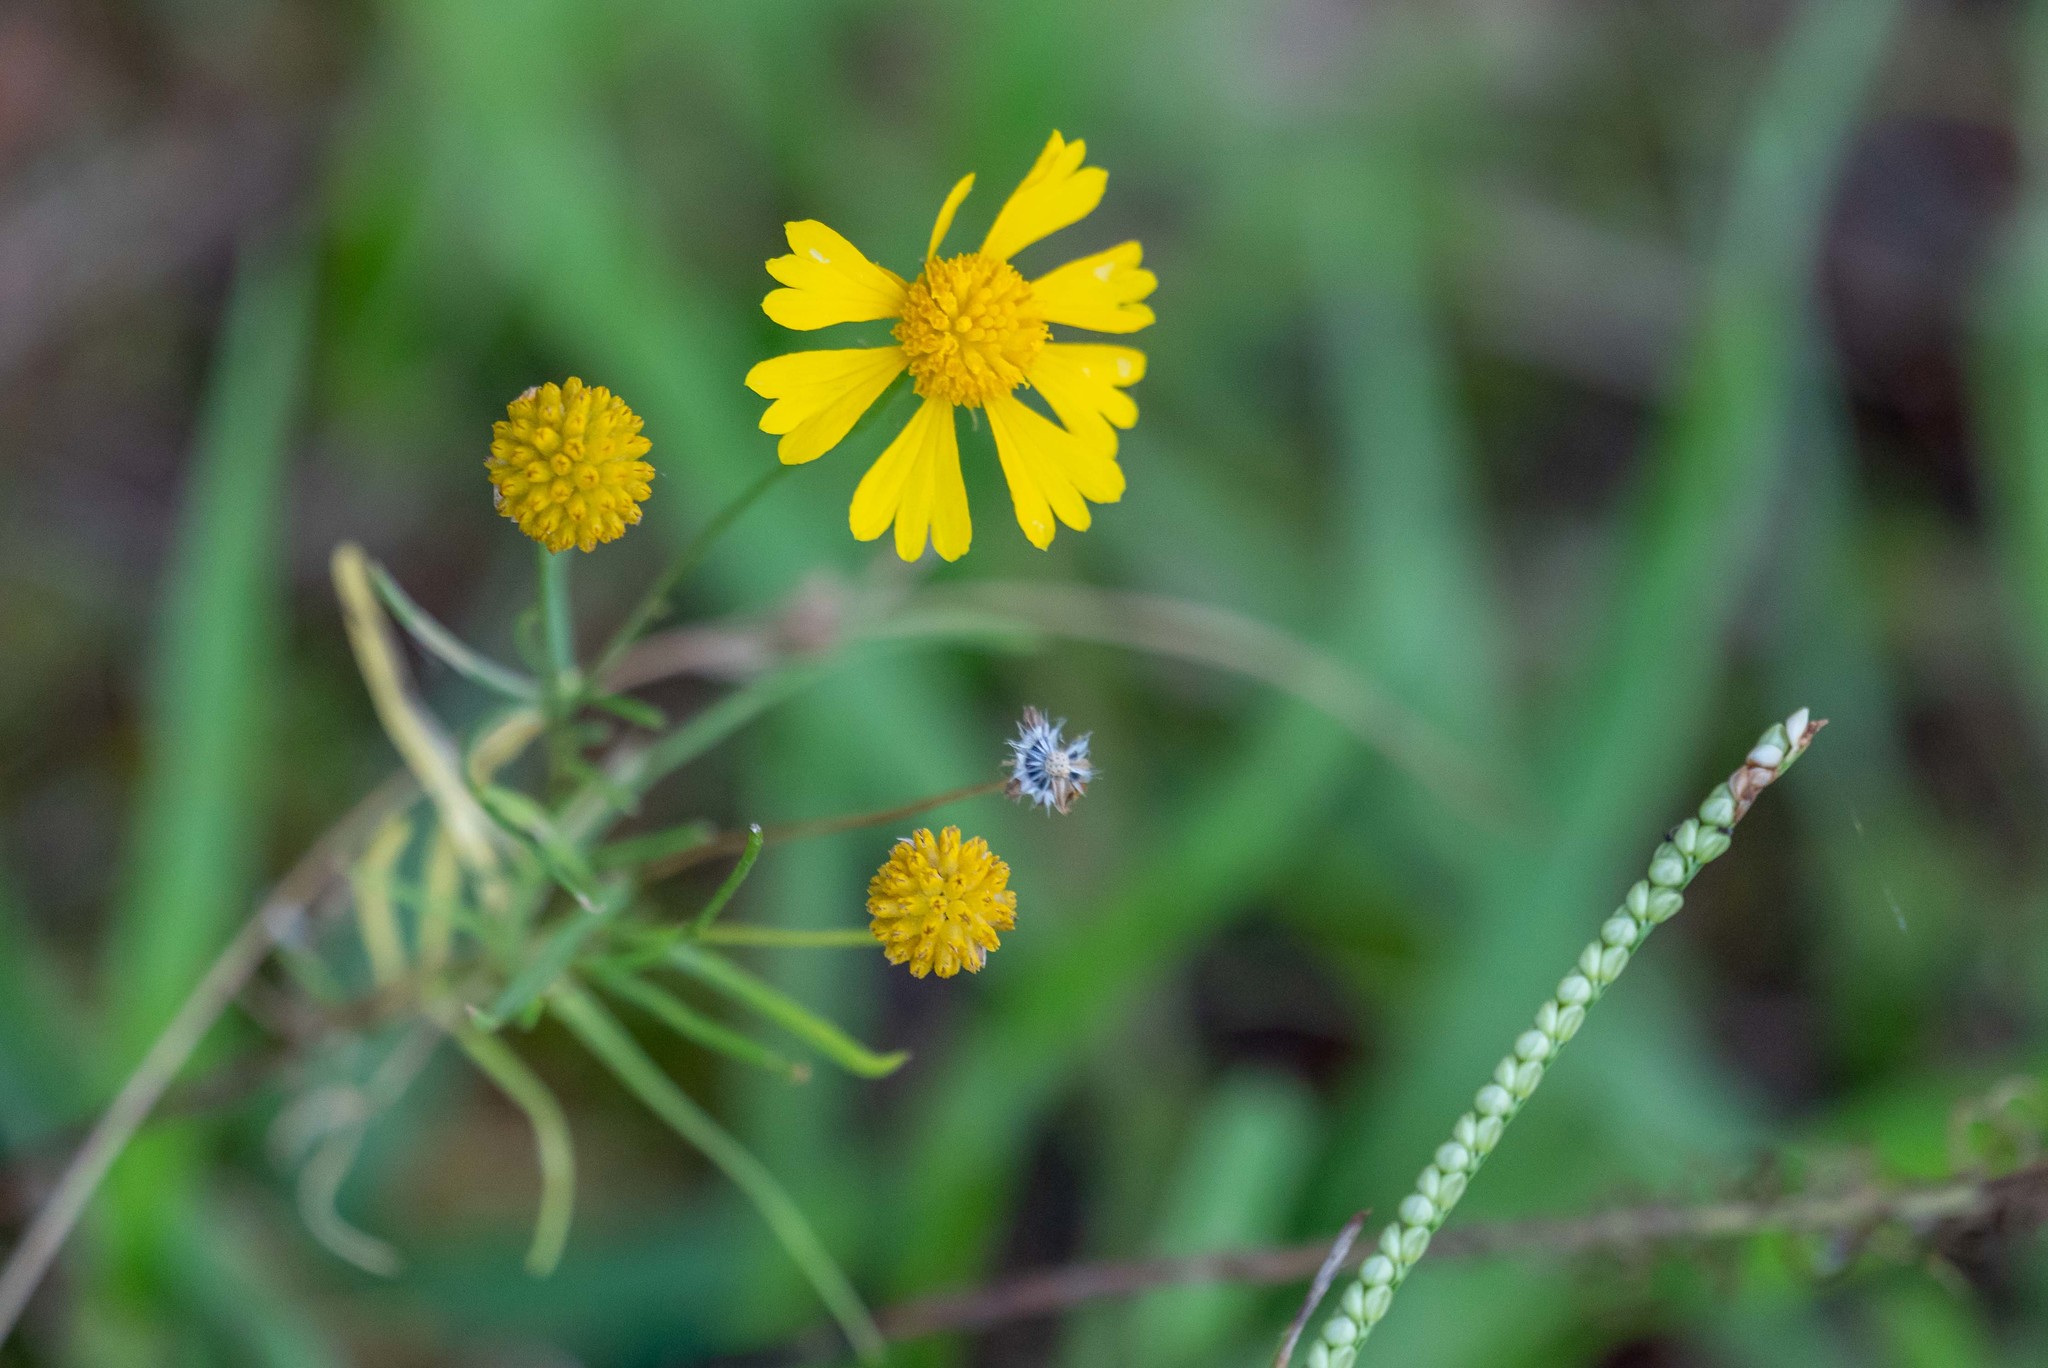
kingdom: Plantae
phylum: Tracheophyta
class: Magnoliopsida
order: Asterales
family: Asteraceae
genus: Helenium
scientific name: Helenium amarum
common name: Bitter sneezeweed
